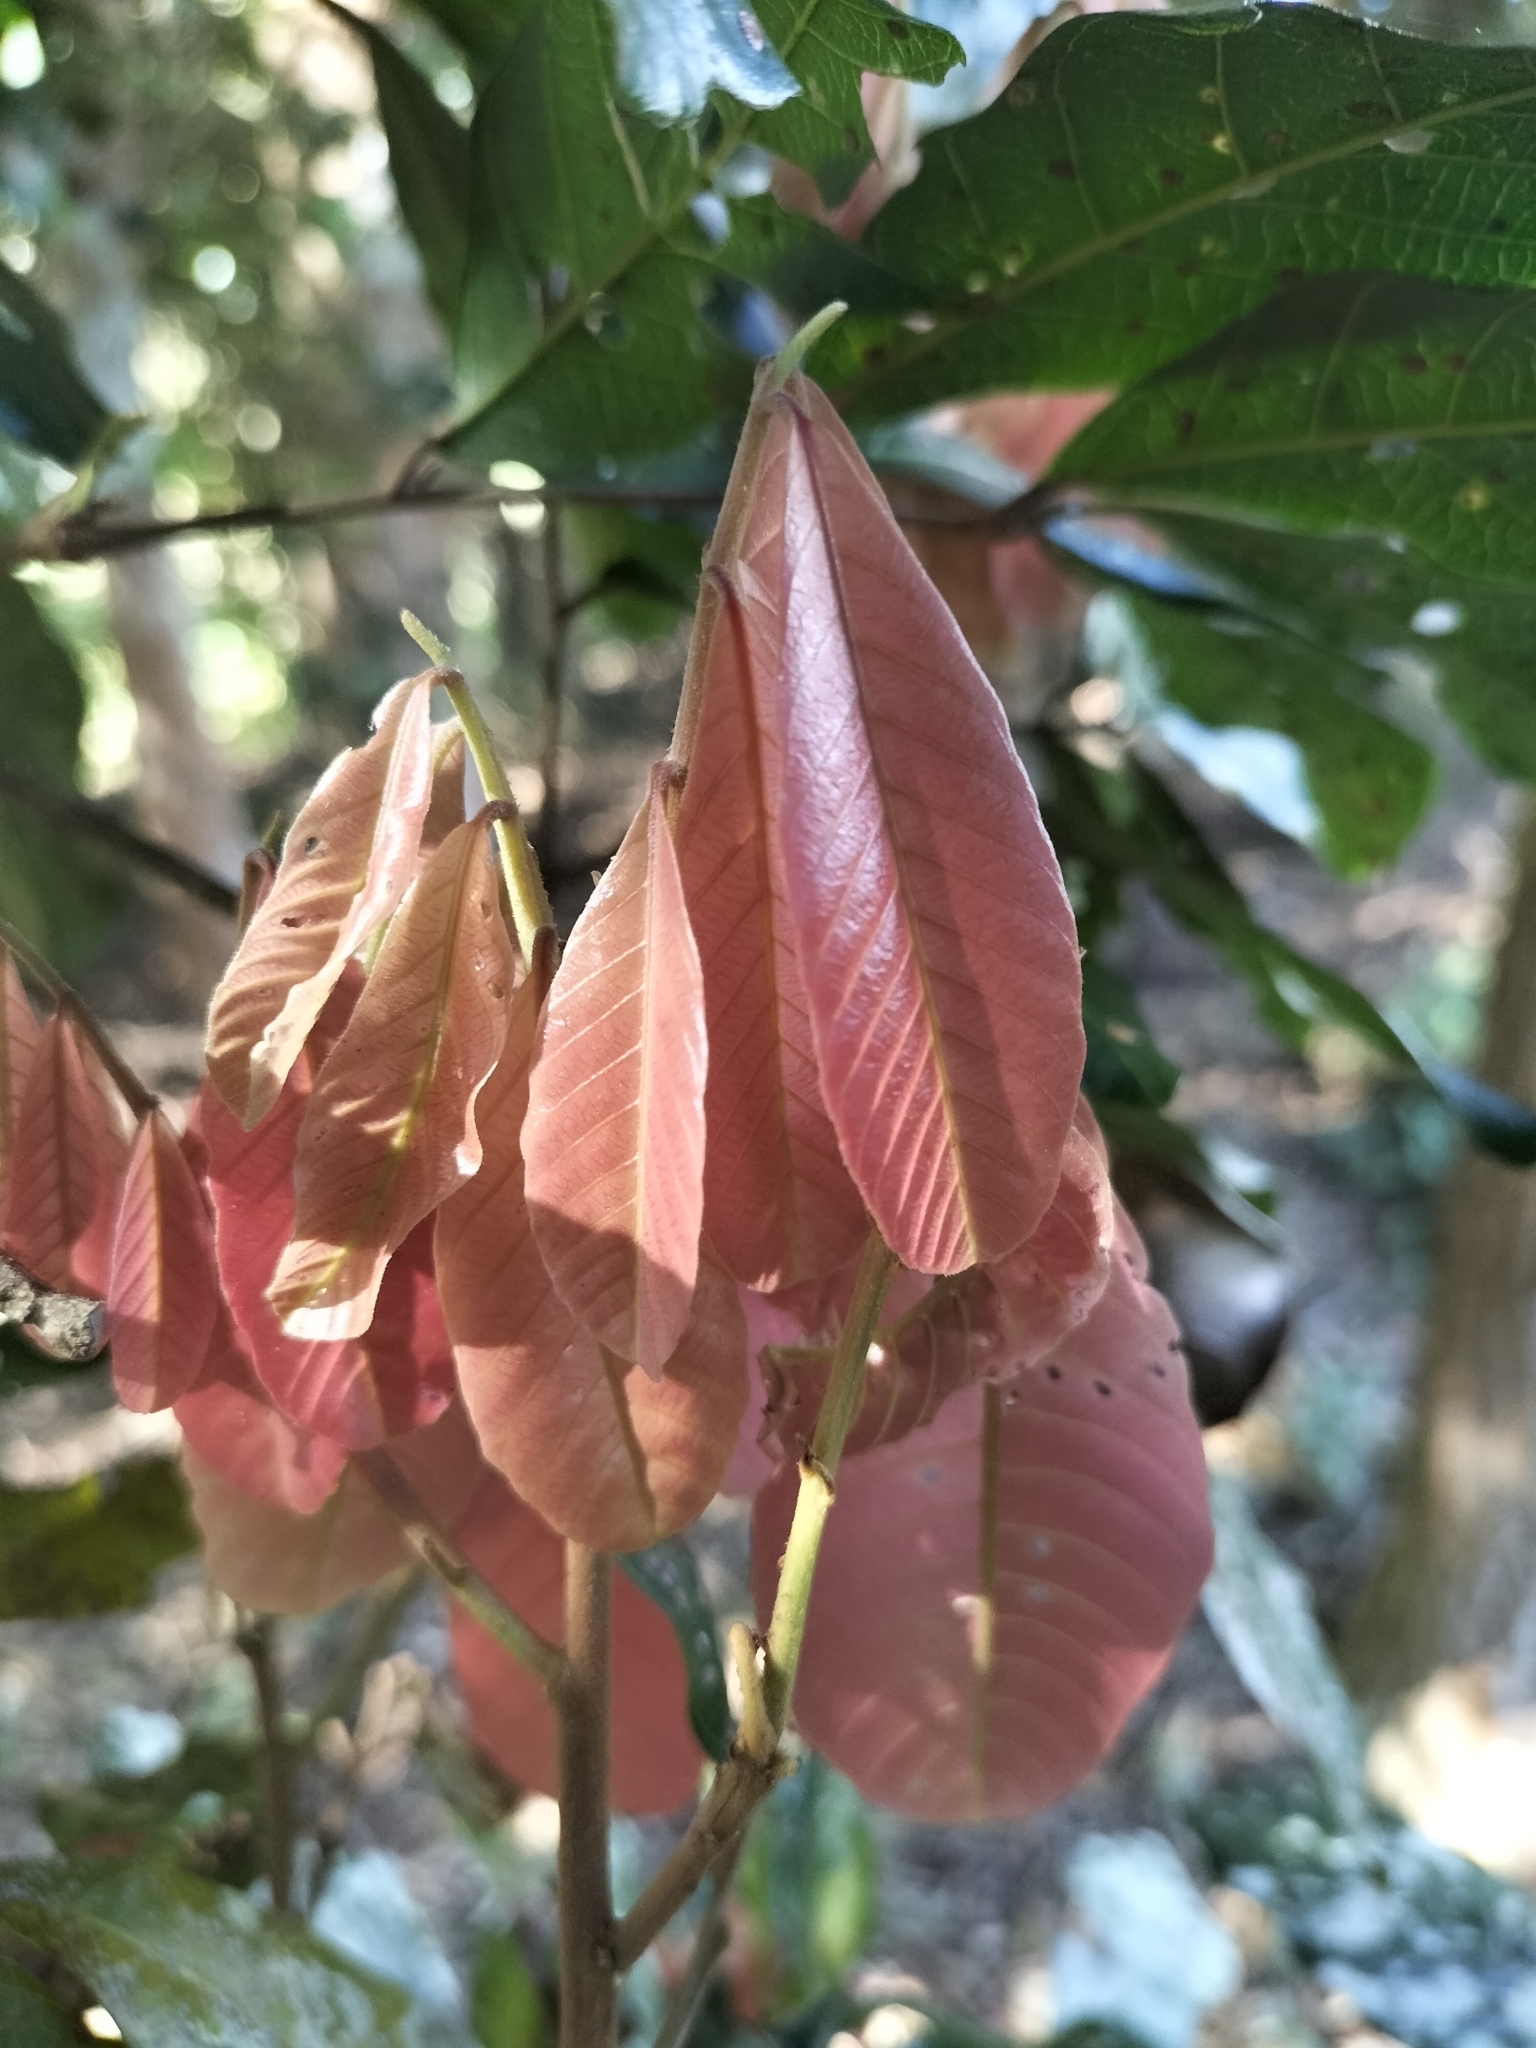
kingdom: Plantae
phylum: Tracheophyta
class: Magnoliopsida
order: Sapindales
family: Sapindaceae
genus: Arytera
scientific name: Arytera divaricata
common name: Coogera
